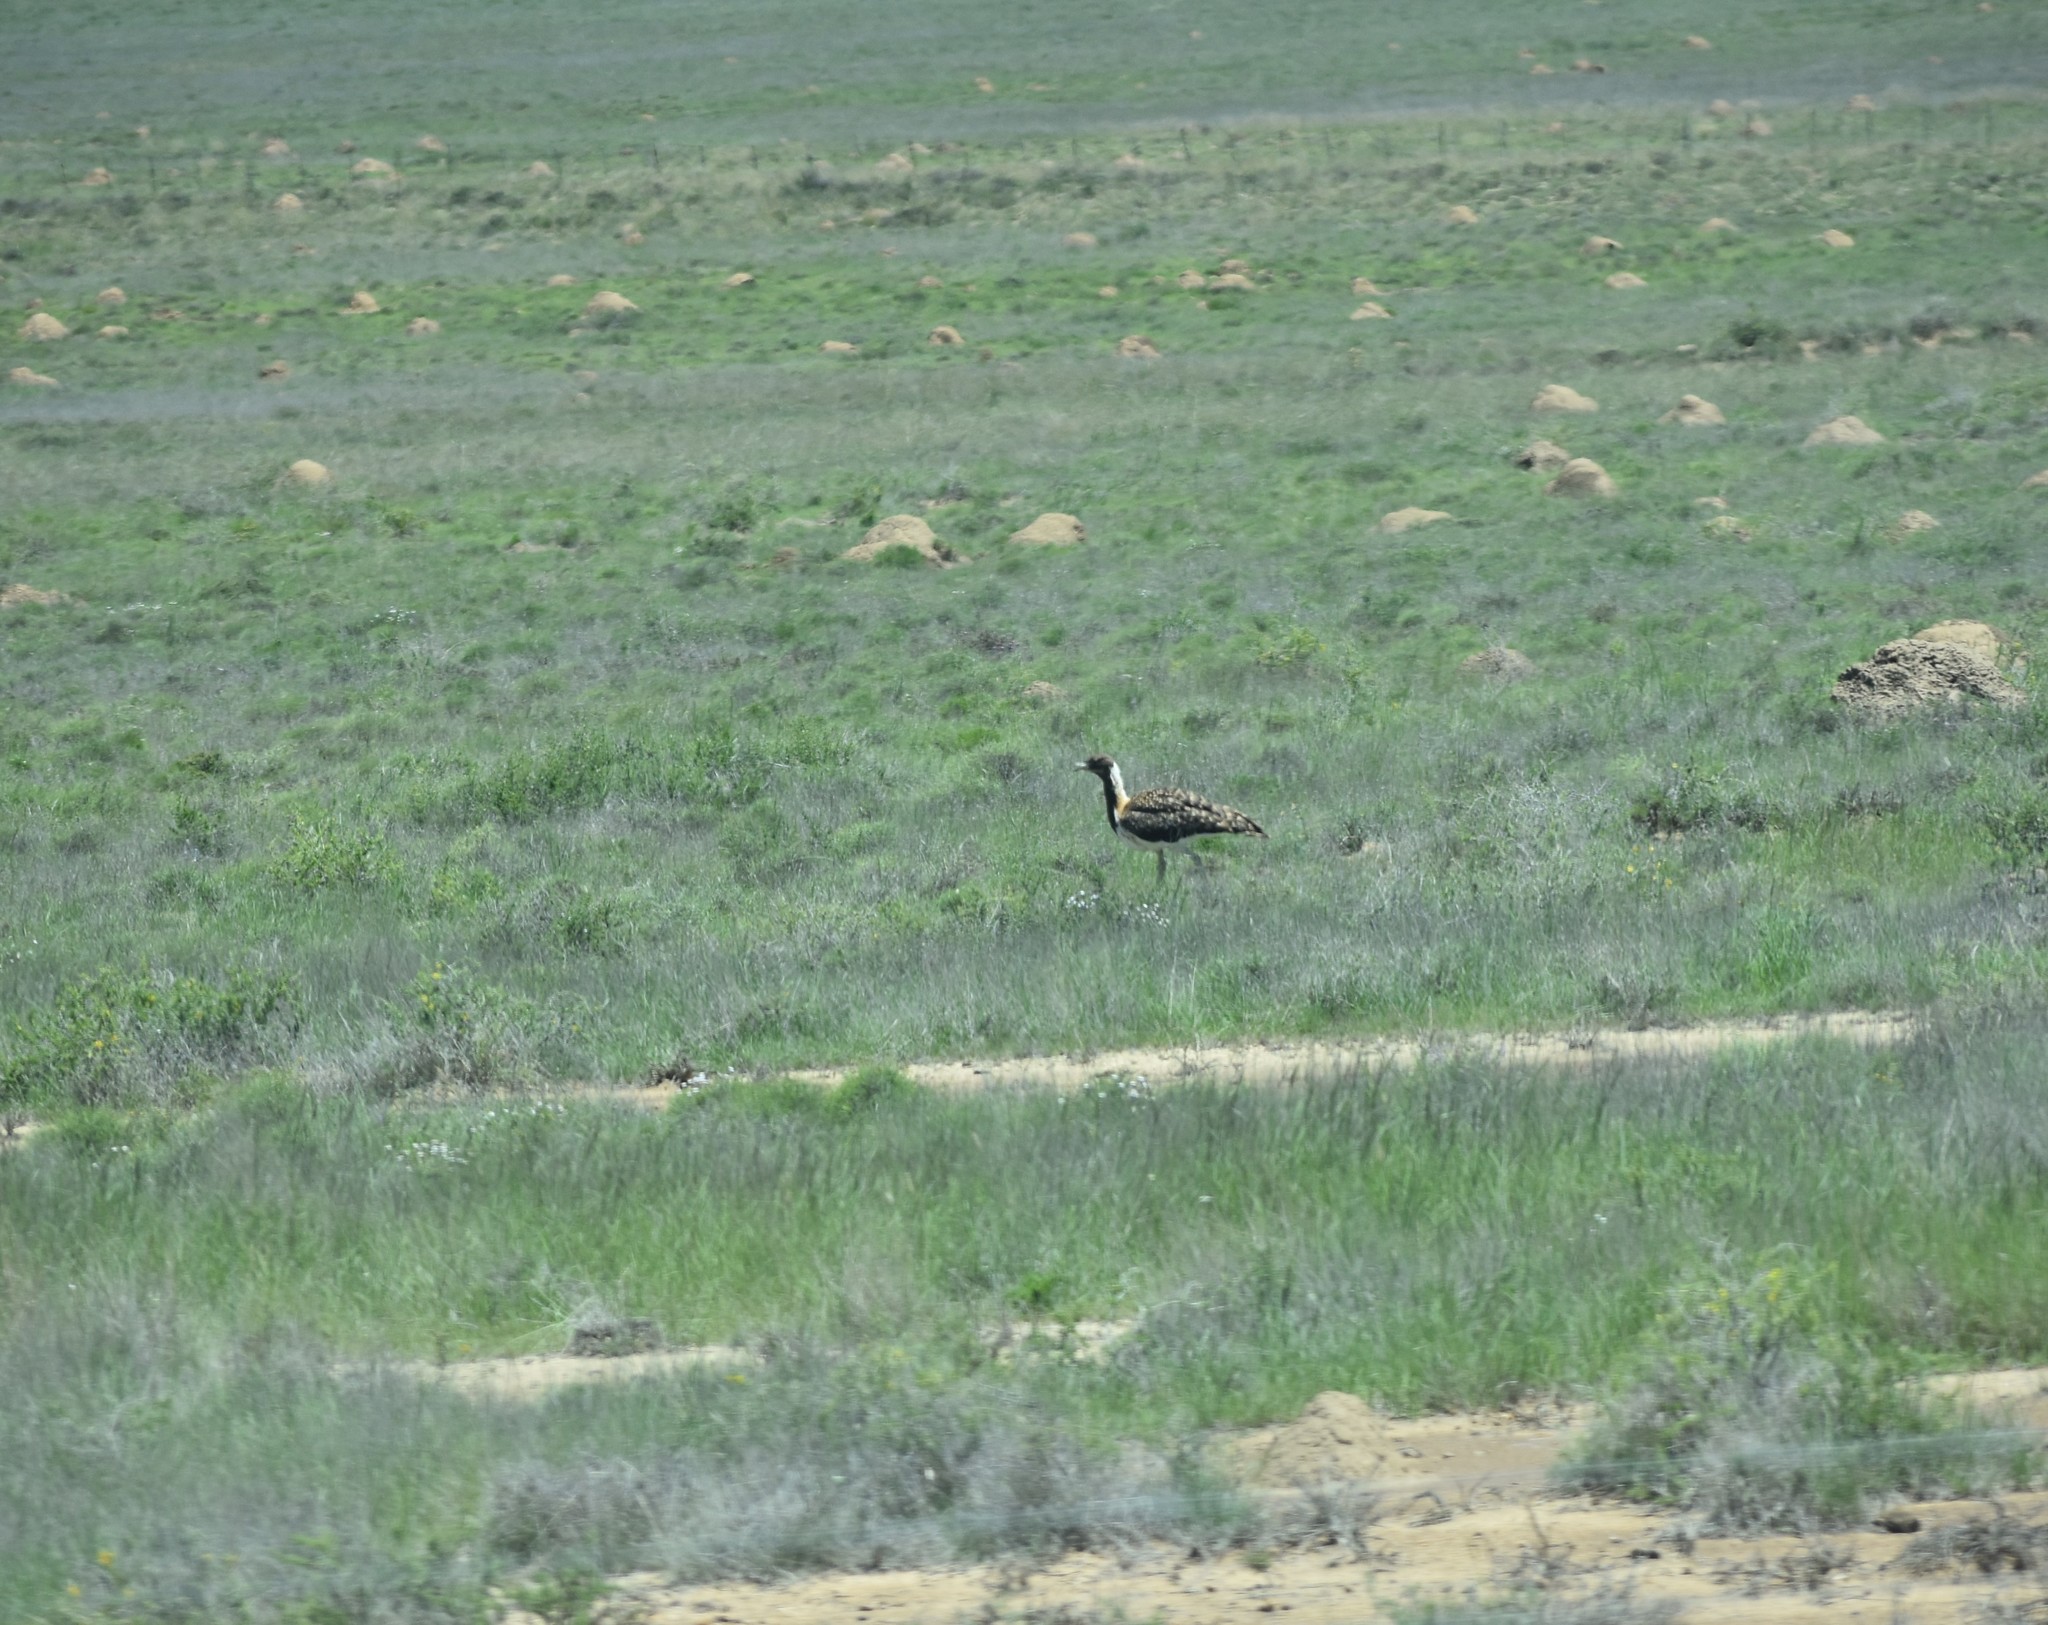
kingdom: Animalia
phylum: Chordata
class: Aves
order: Otidiformes
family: Otididae
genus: Neotis
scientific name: Neotis ludwigii
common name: Ludwig's bustard
